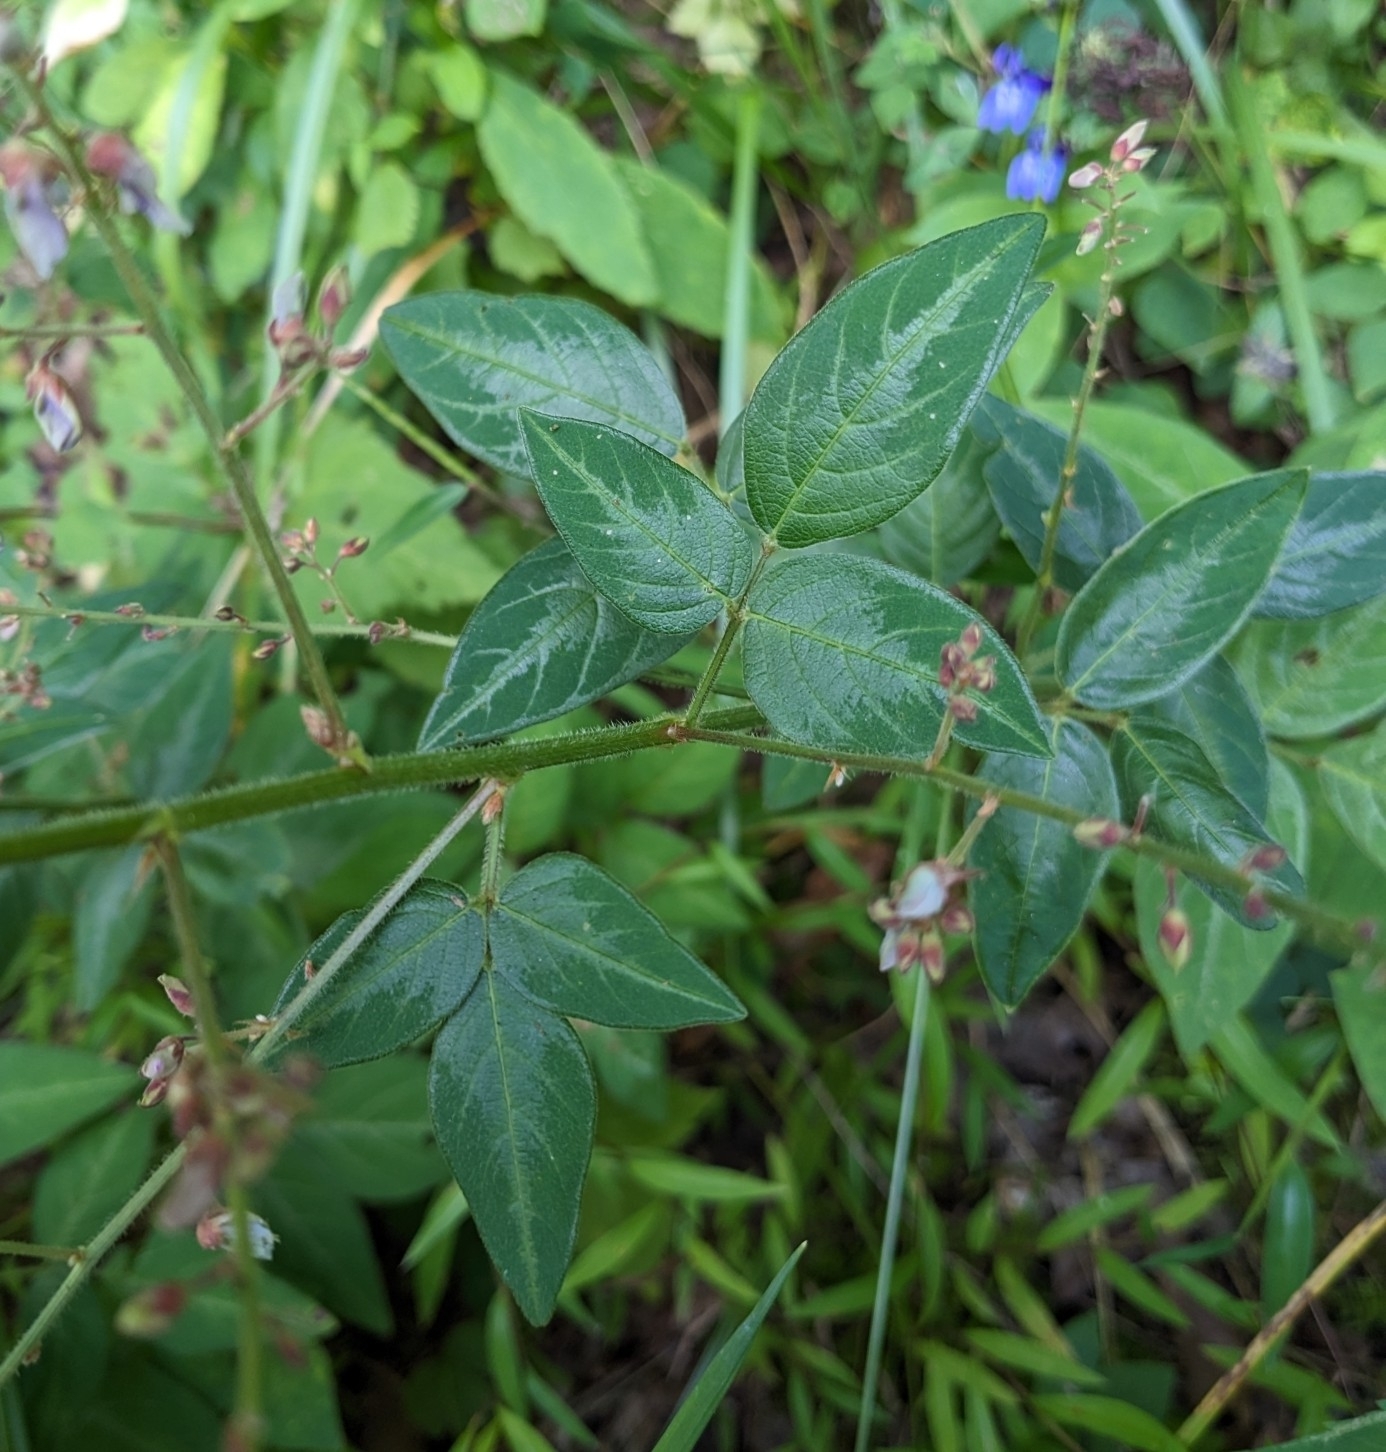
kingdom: Plantae
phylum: Tracheophyta
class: Magnoliopsida
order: Fabales
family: Fabaceae
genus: Desmodium
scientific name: Desmodium glabellum
